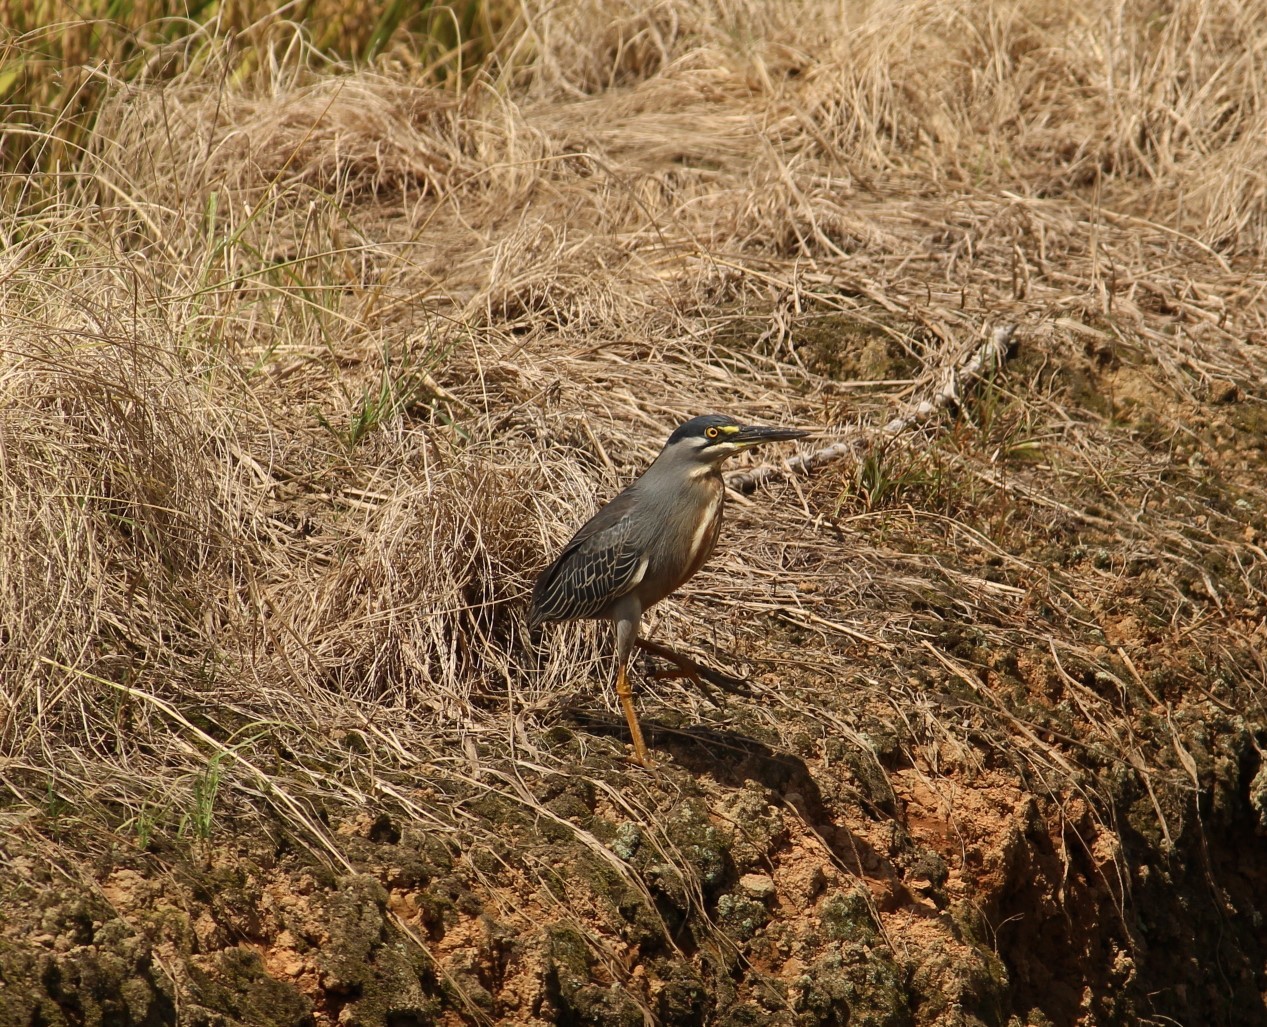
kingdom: Animalia
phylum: Chordata
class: Aves
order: Pelecaniformes
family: Ardeidae
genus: Butorides
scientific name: Butorides striata
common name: Striated heron
